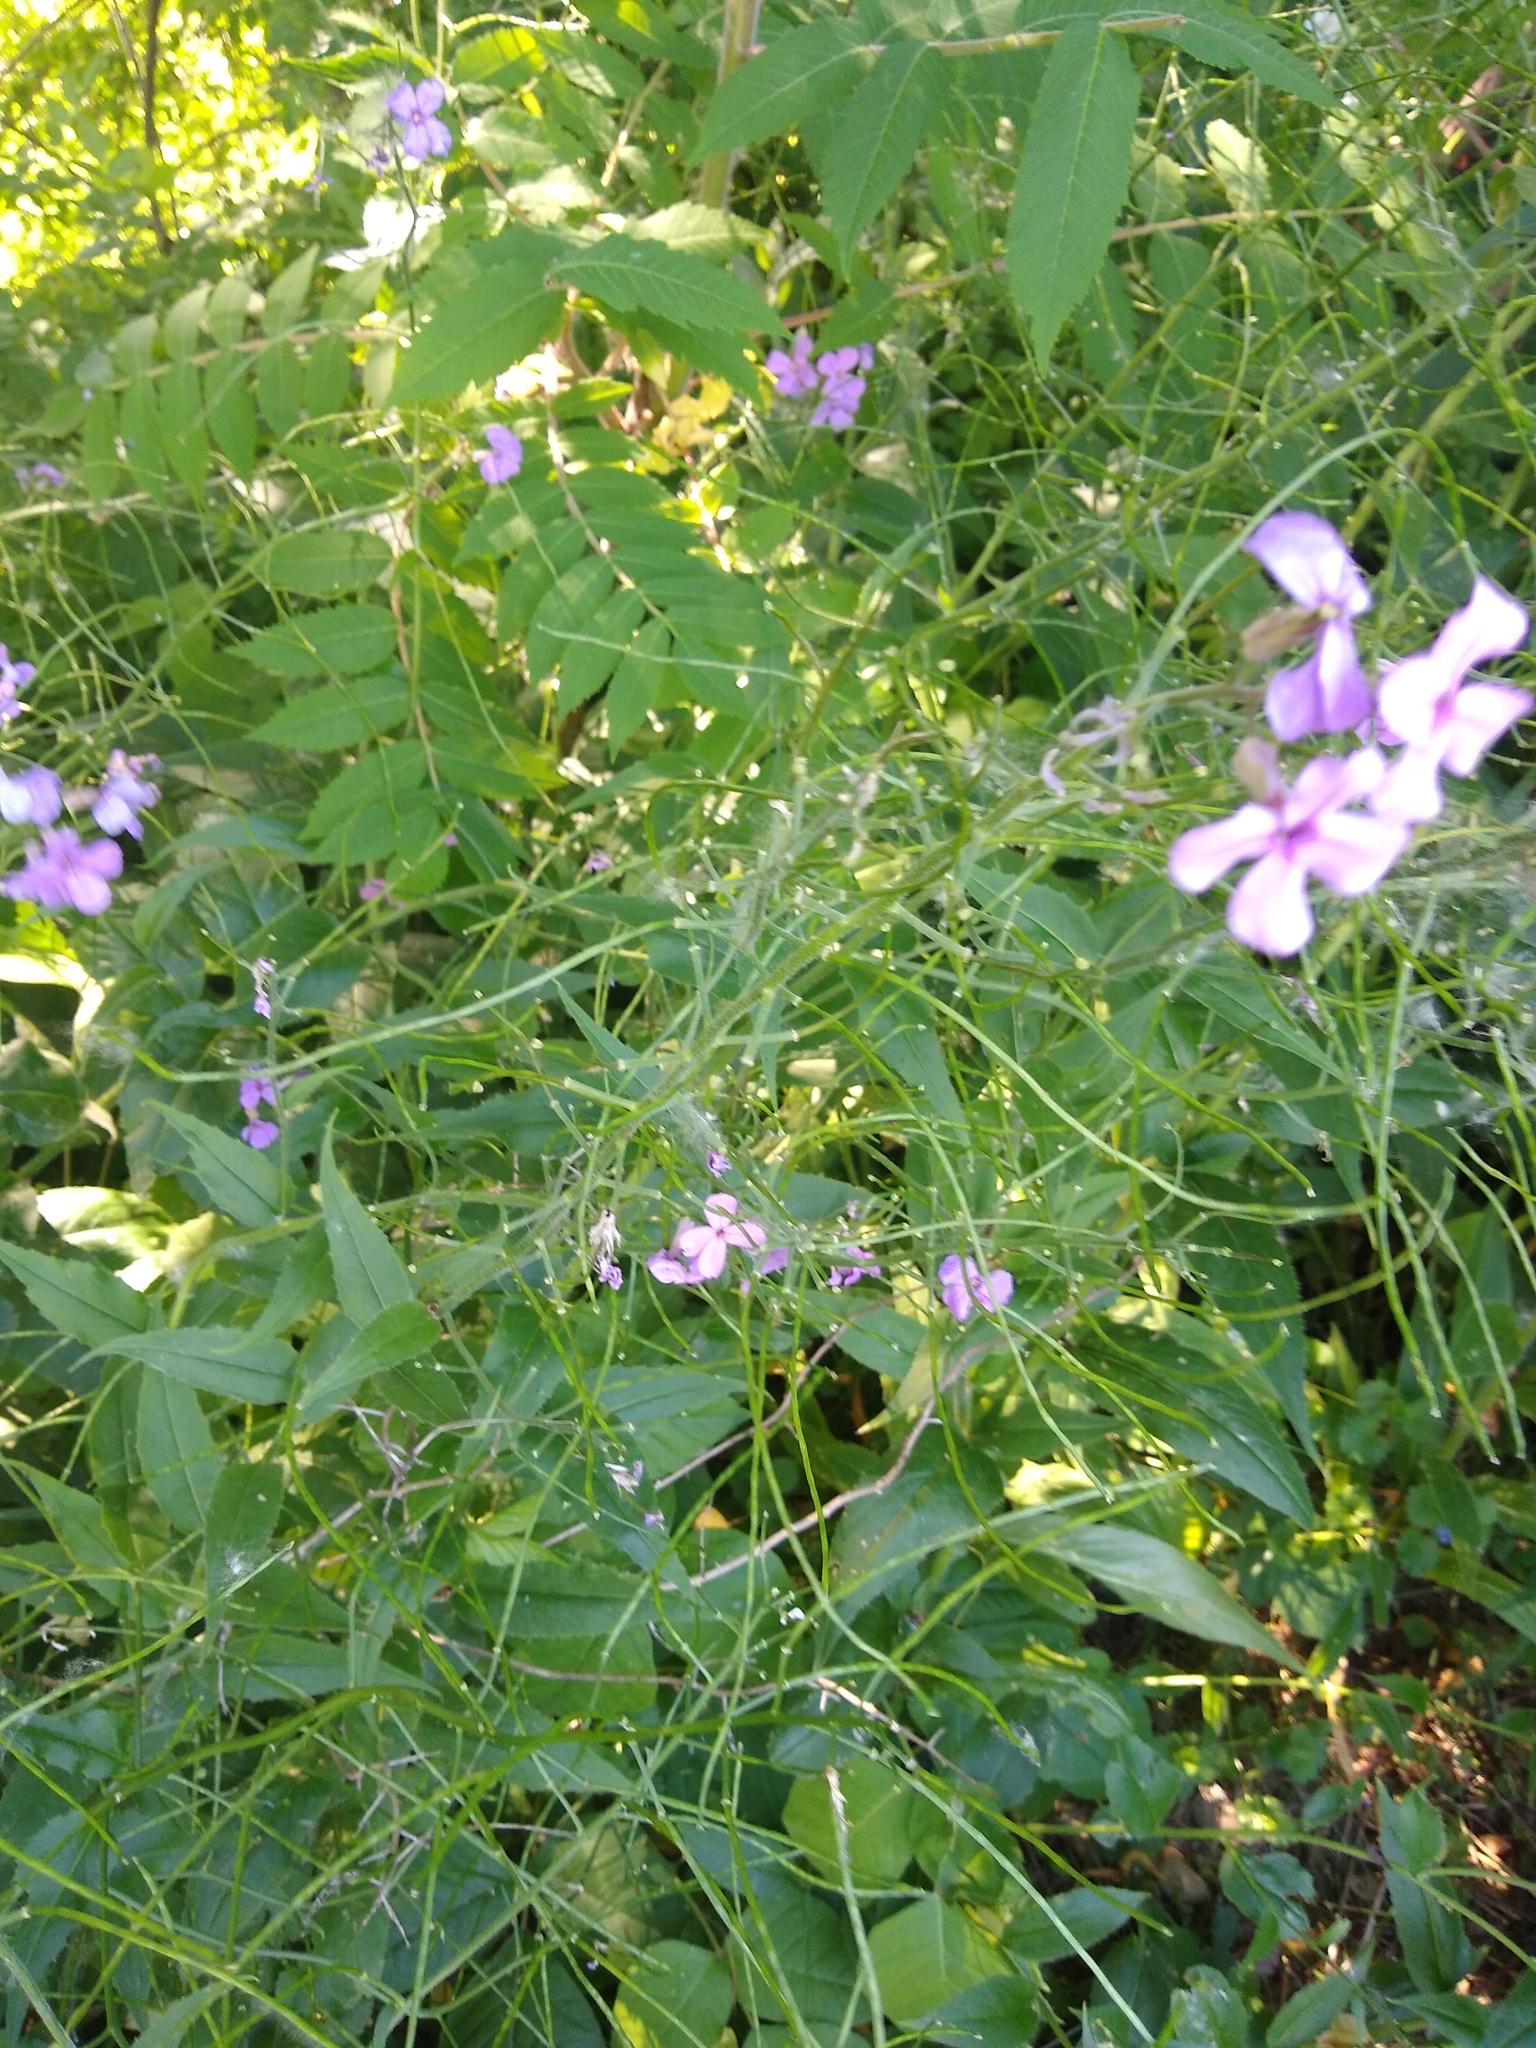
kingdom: Plantae
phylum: Tracheophyta
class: Magnoliopsida
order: Brassicales
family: Brassicaceae
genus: Hesperis
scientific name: Hesperis matronalis
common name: Dame's-violet
